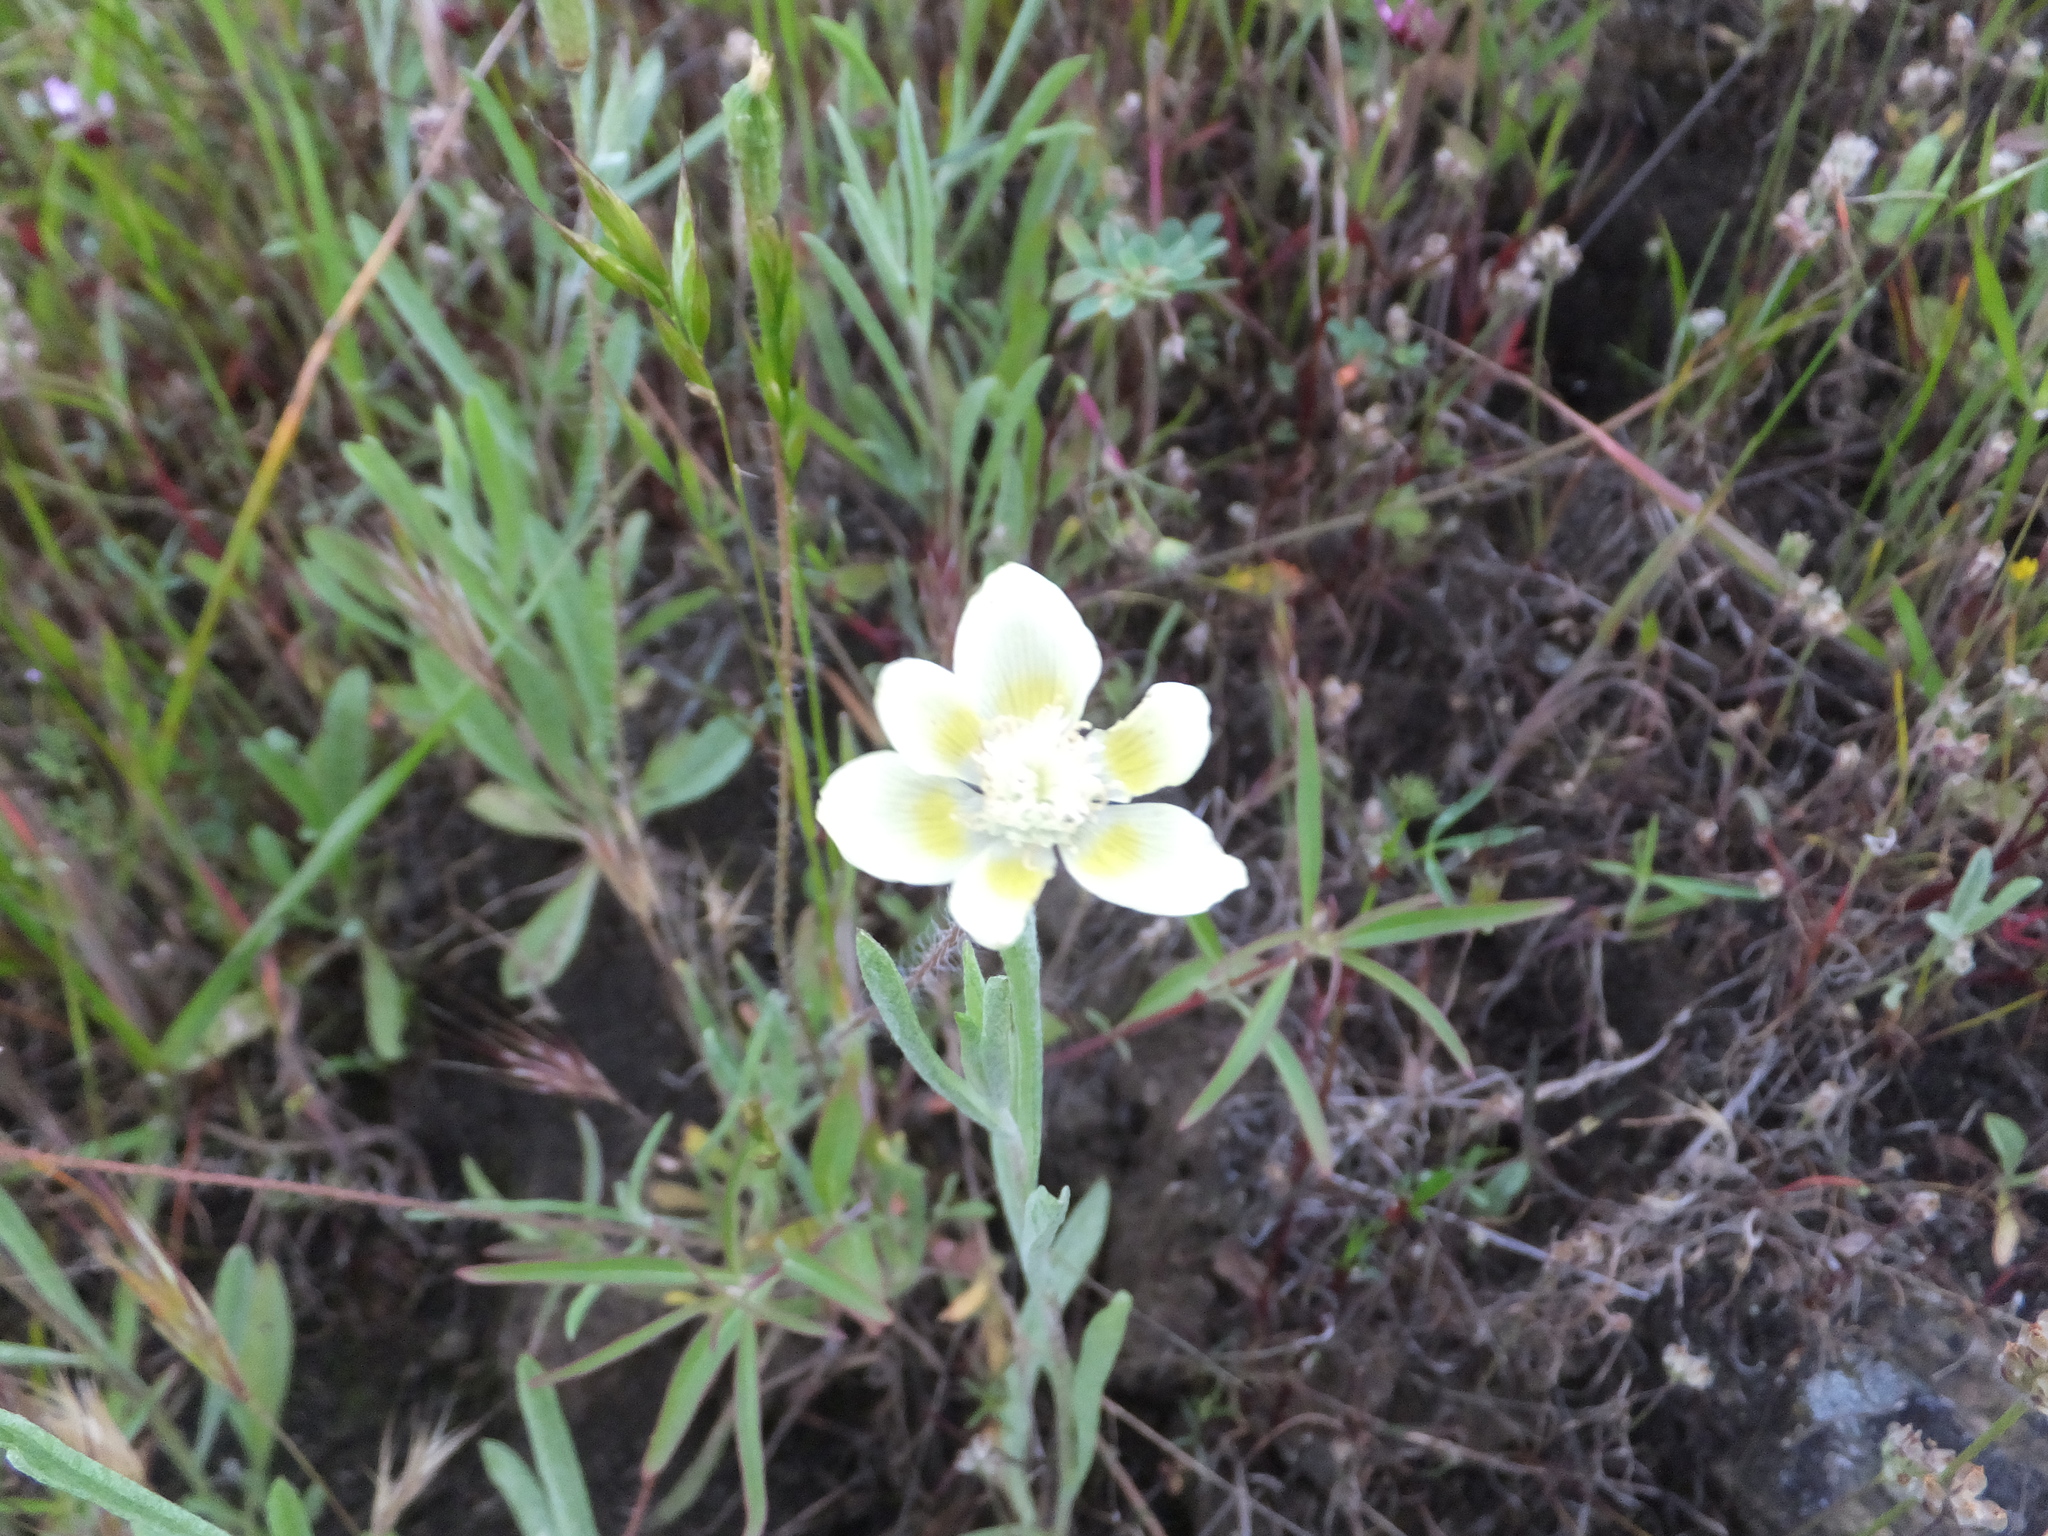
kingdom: Plantae
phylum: Tracheophyta
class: Magnoliopsida
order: Ranunculales
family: Papaveraceae
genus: Platystemon
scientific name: Platystemon californicus
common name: Cream-cups
